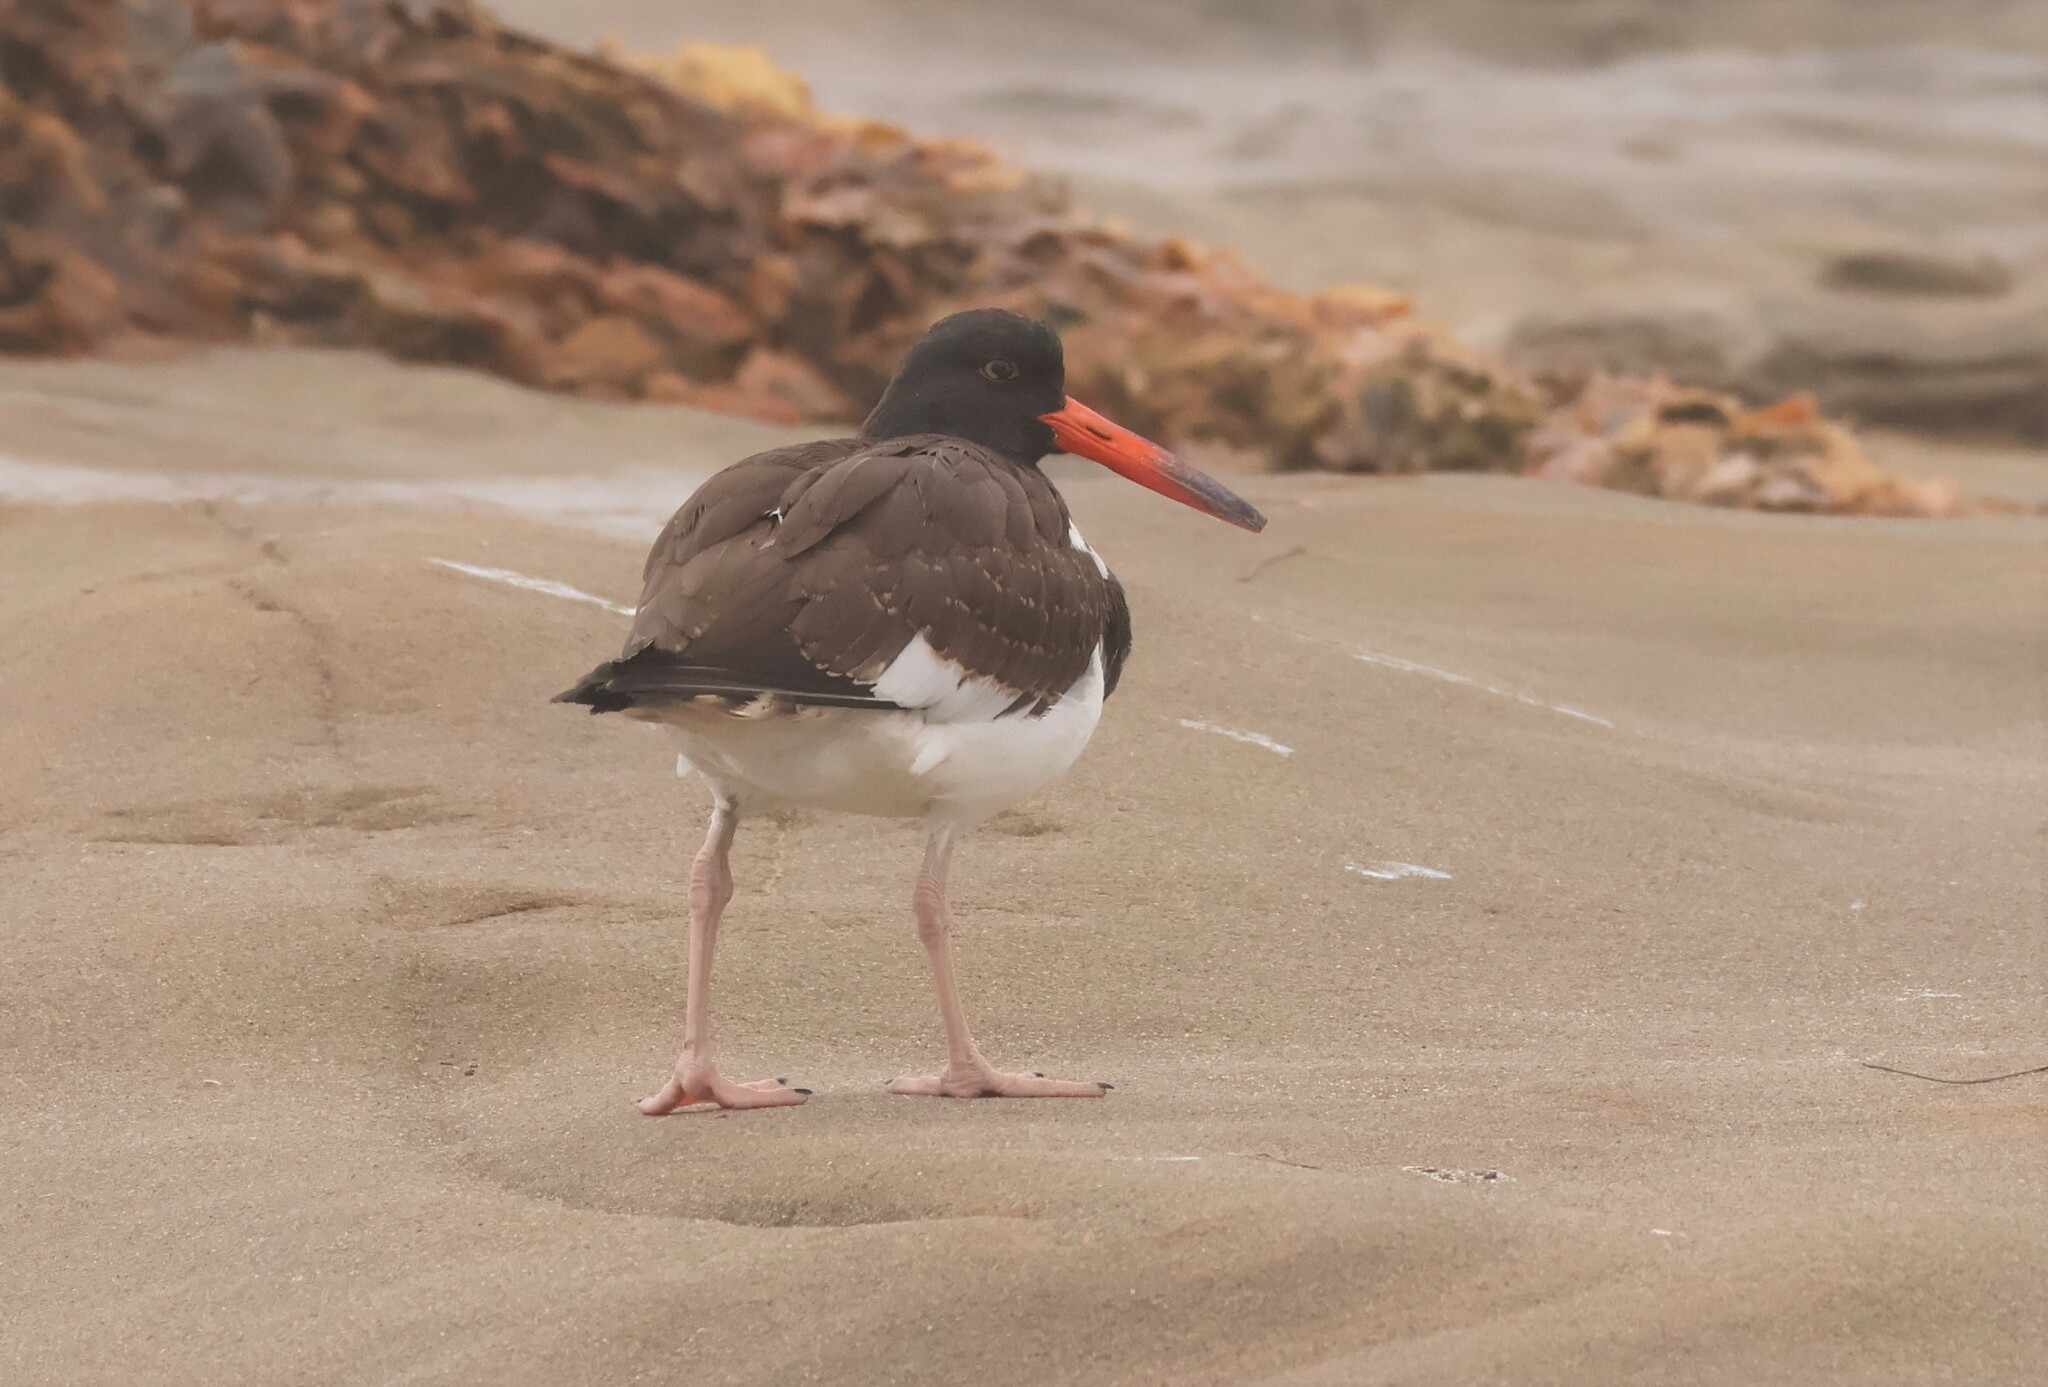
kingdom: Animalia
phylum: Chordata
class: Aves
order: Charadriiformes
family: Haematopodidae
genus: Haematopus
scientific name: Haematopus palliatus
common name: American oystercatcher
